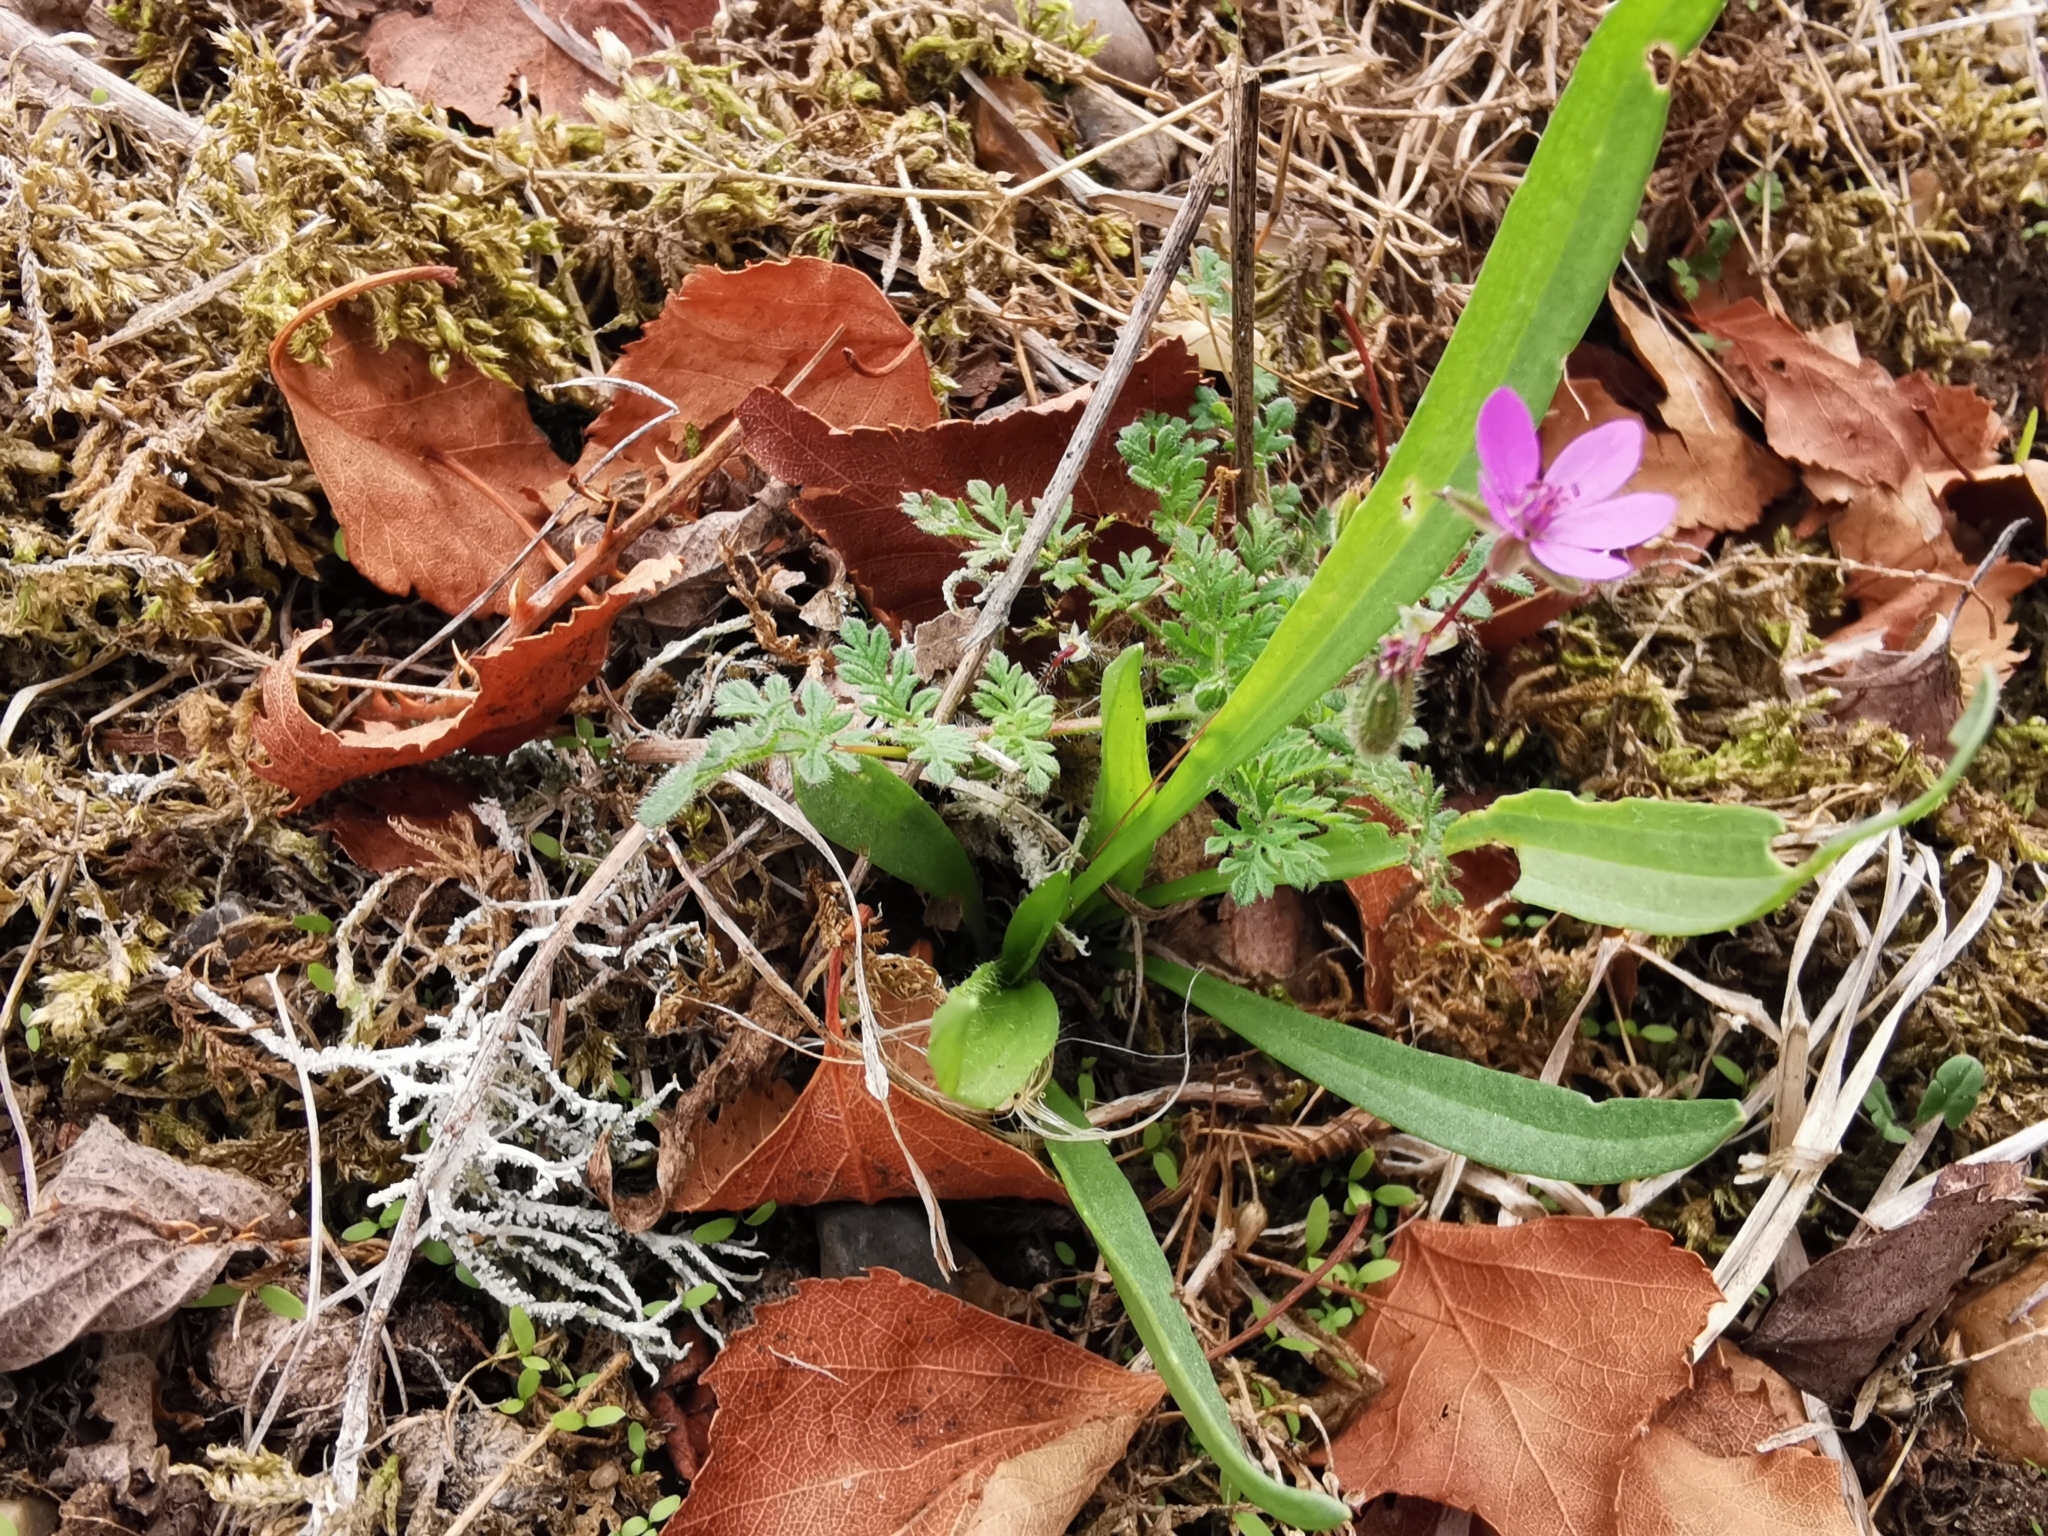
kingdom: Plantae
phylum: Tracheophyta
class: Magnoliopsida
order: Geraniales
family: Geraniaceae
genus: Erodium
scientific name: Erodium cicutarium
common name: Common stork's-bill
